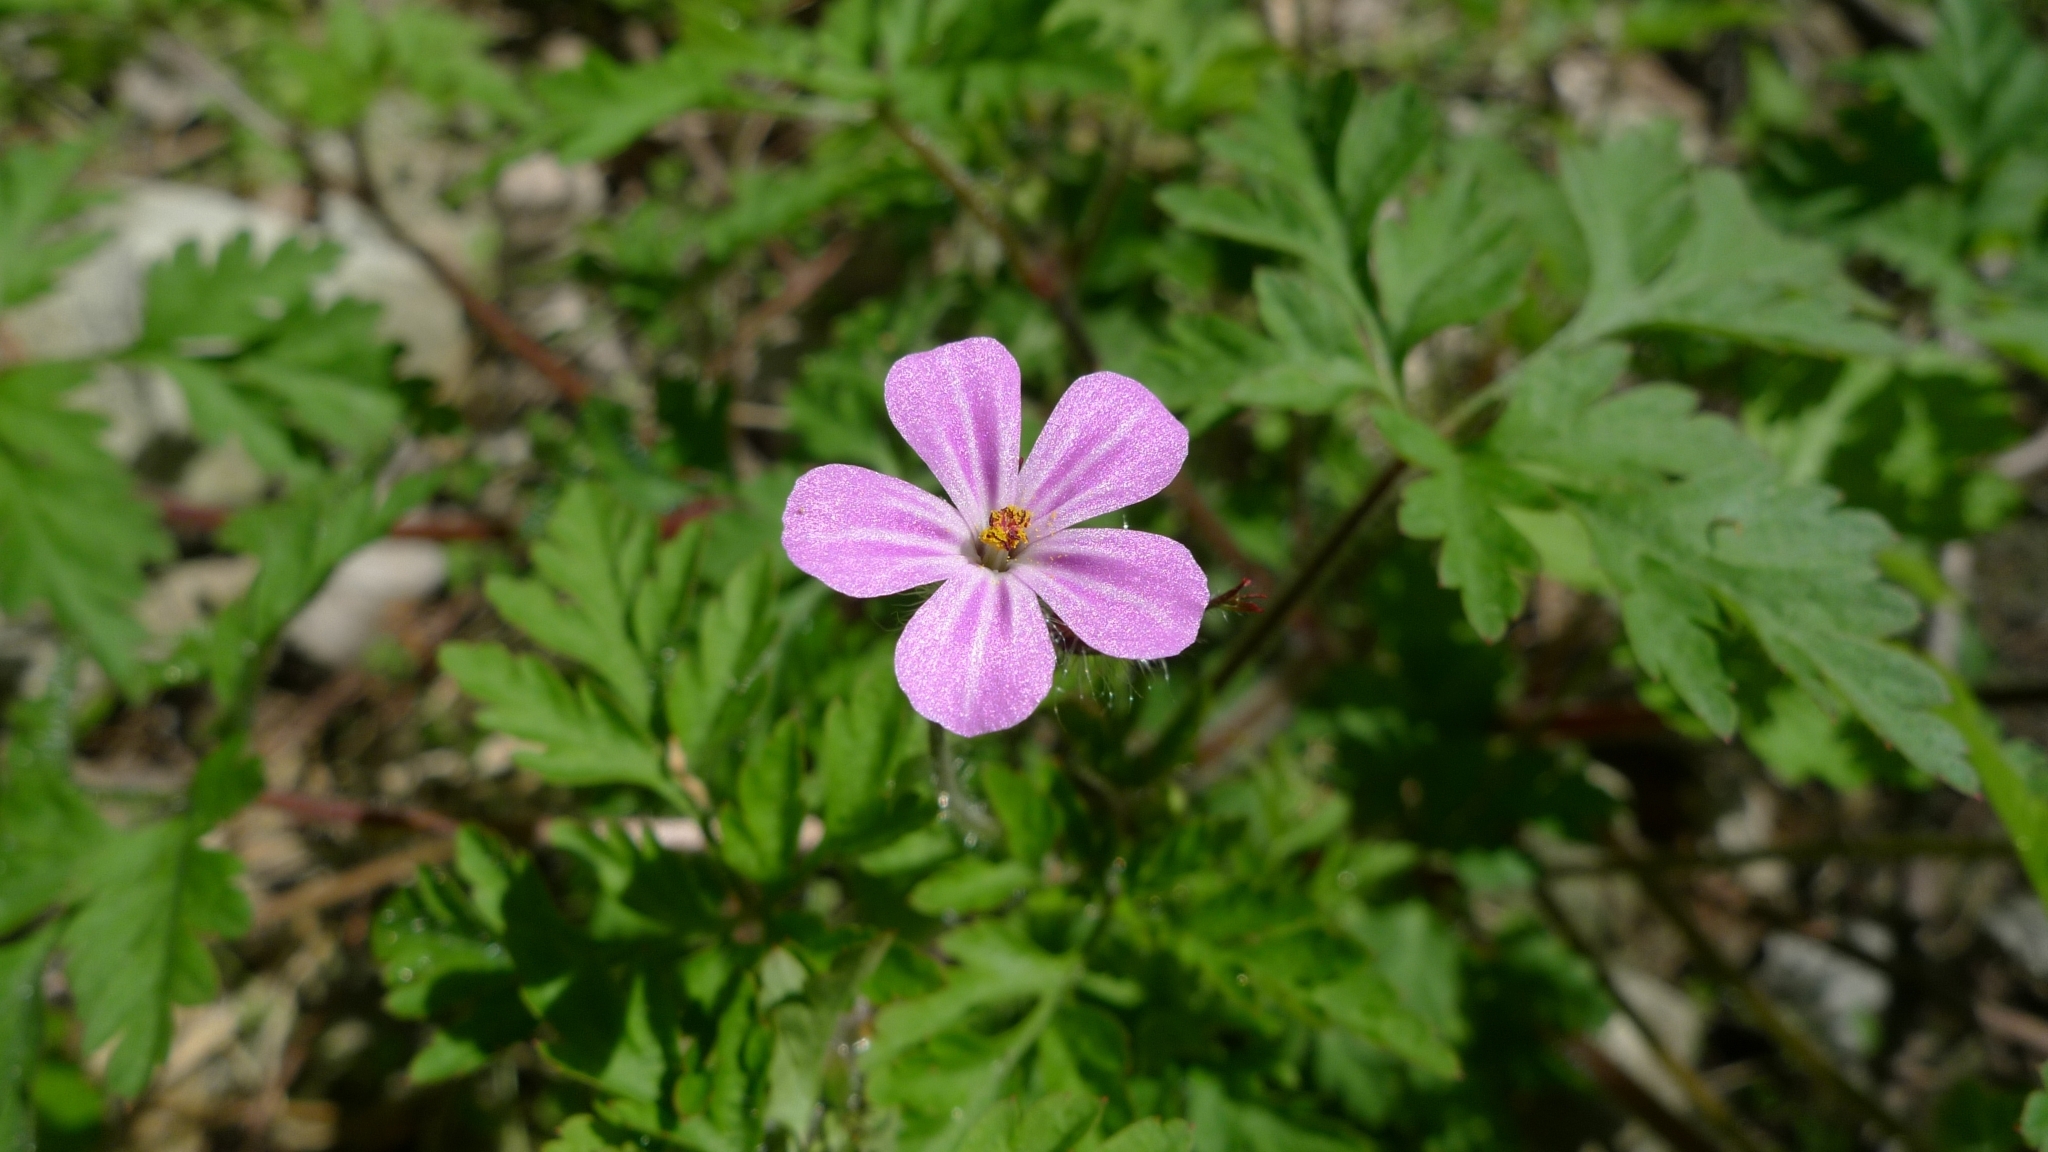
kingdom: Plantae
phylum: Tracheophyta
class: Magnoliopsida
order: Geraniales
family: Geraniaceae
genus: Geranium
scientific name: Geranium robertianum
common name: Herb-robert
